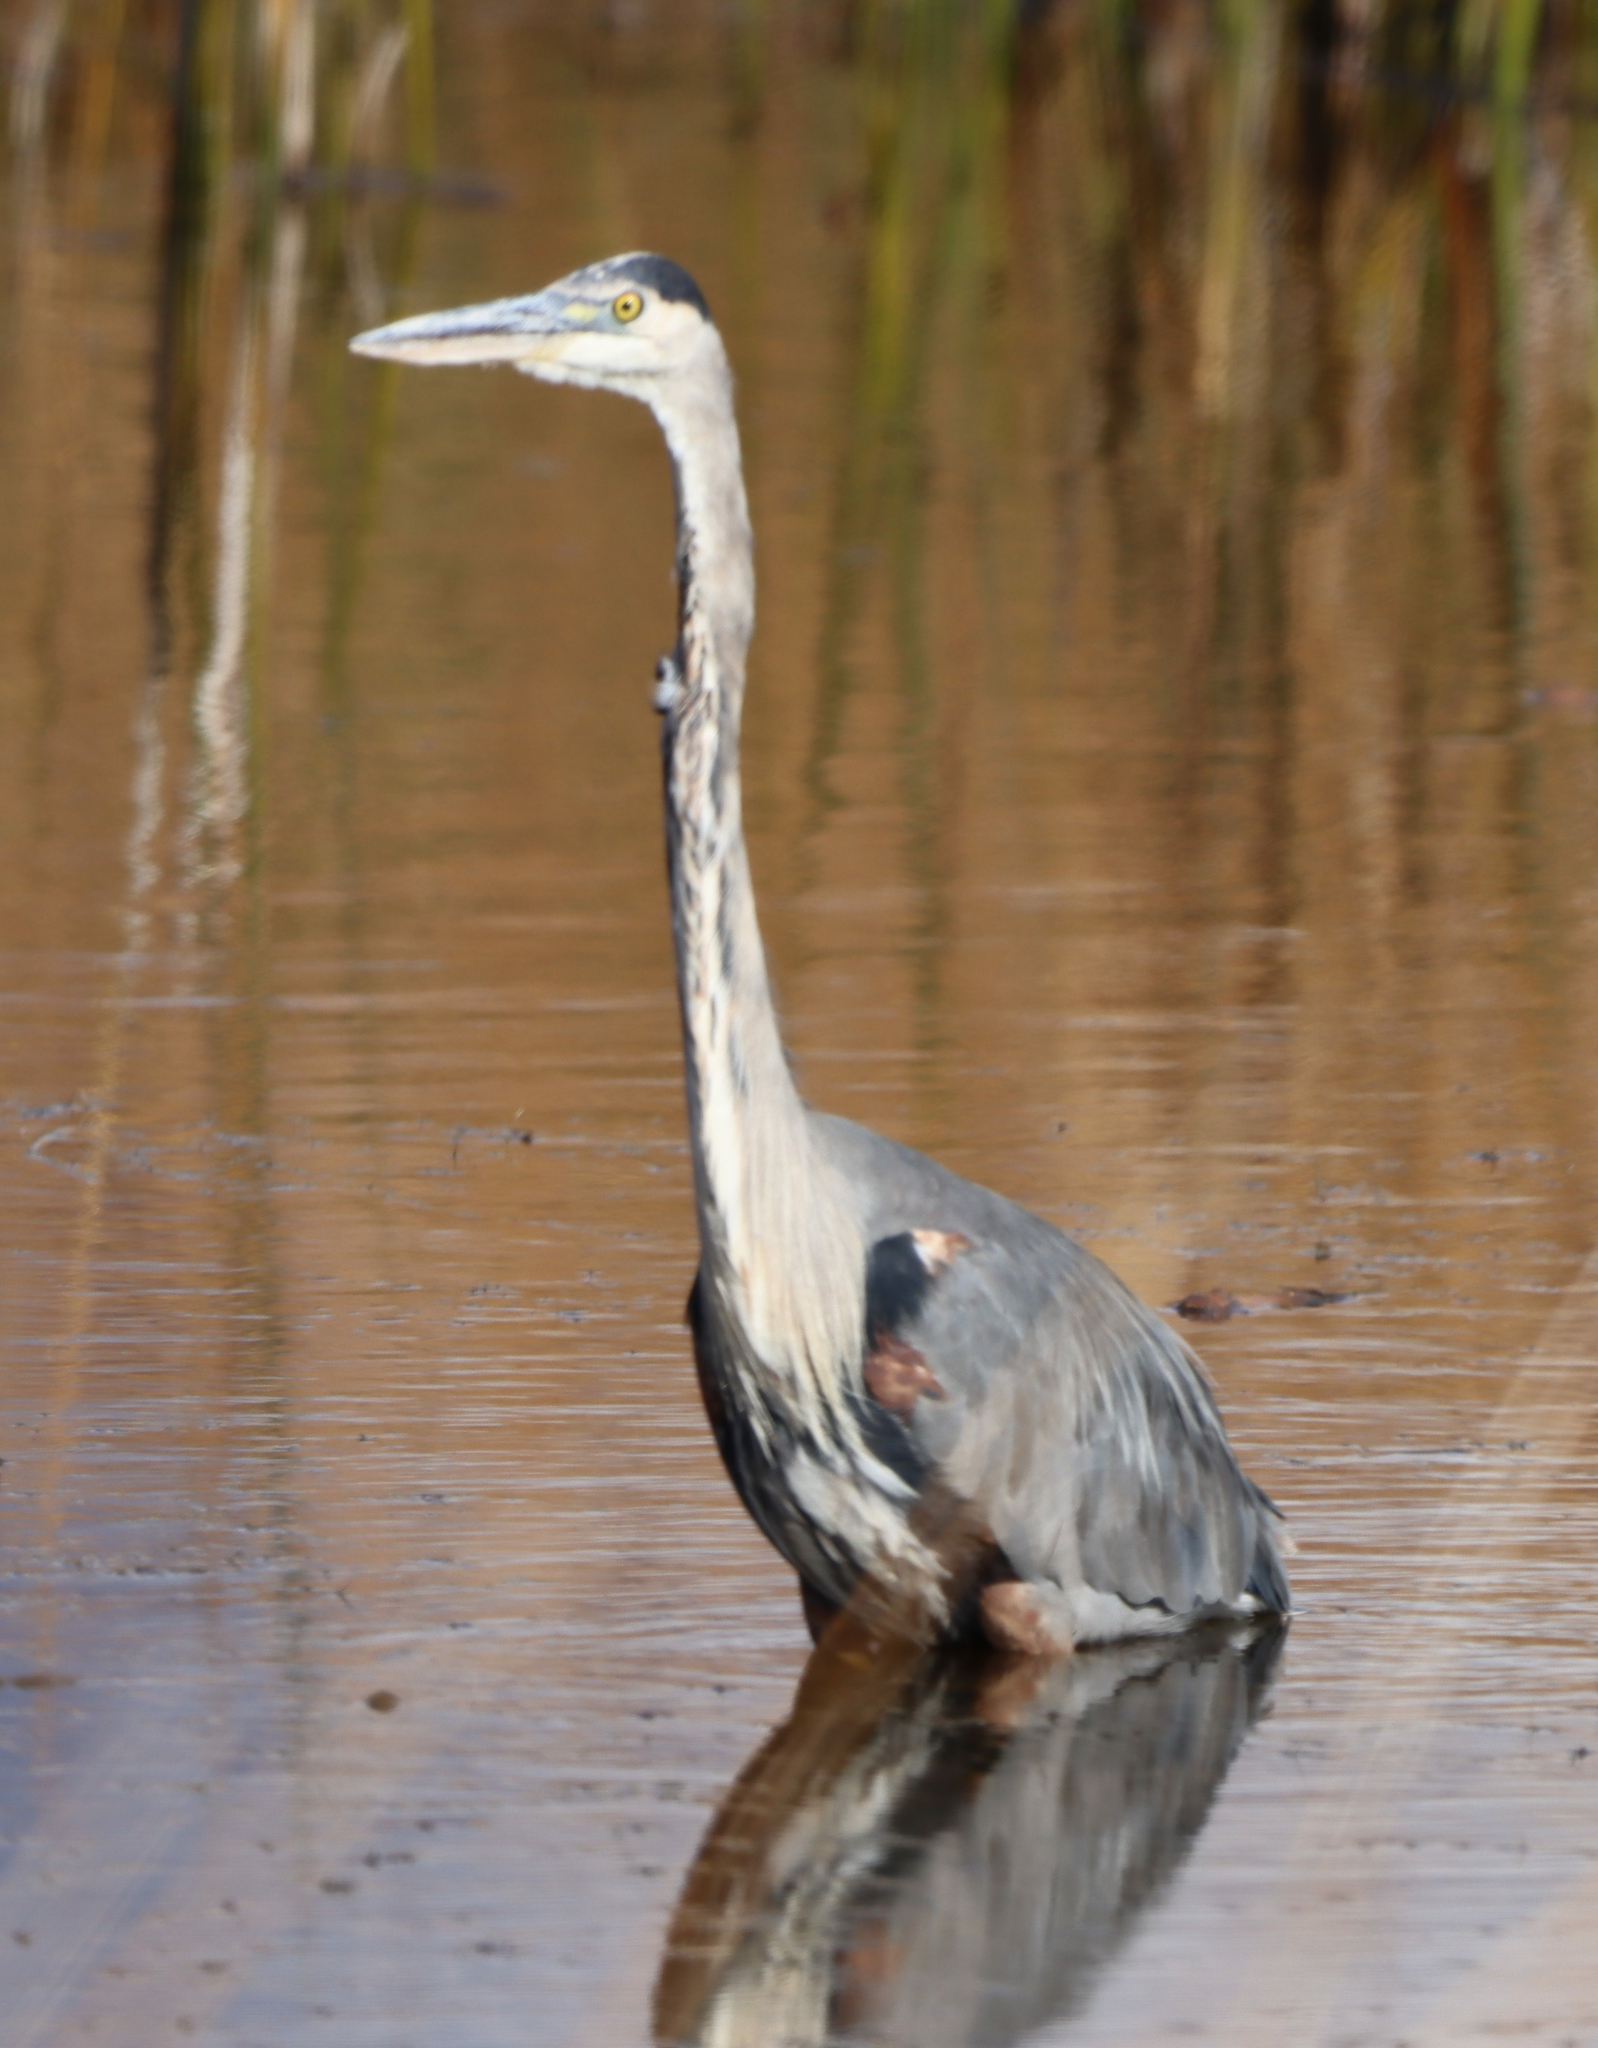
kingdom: Animalia
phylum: Chordata
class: Aves
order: Pelecaniformes
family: Ardeidae
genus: Ardea
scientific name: Ardea herodias
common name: Great blue heron
